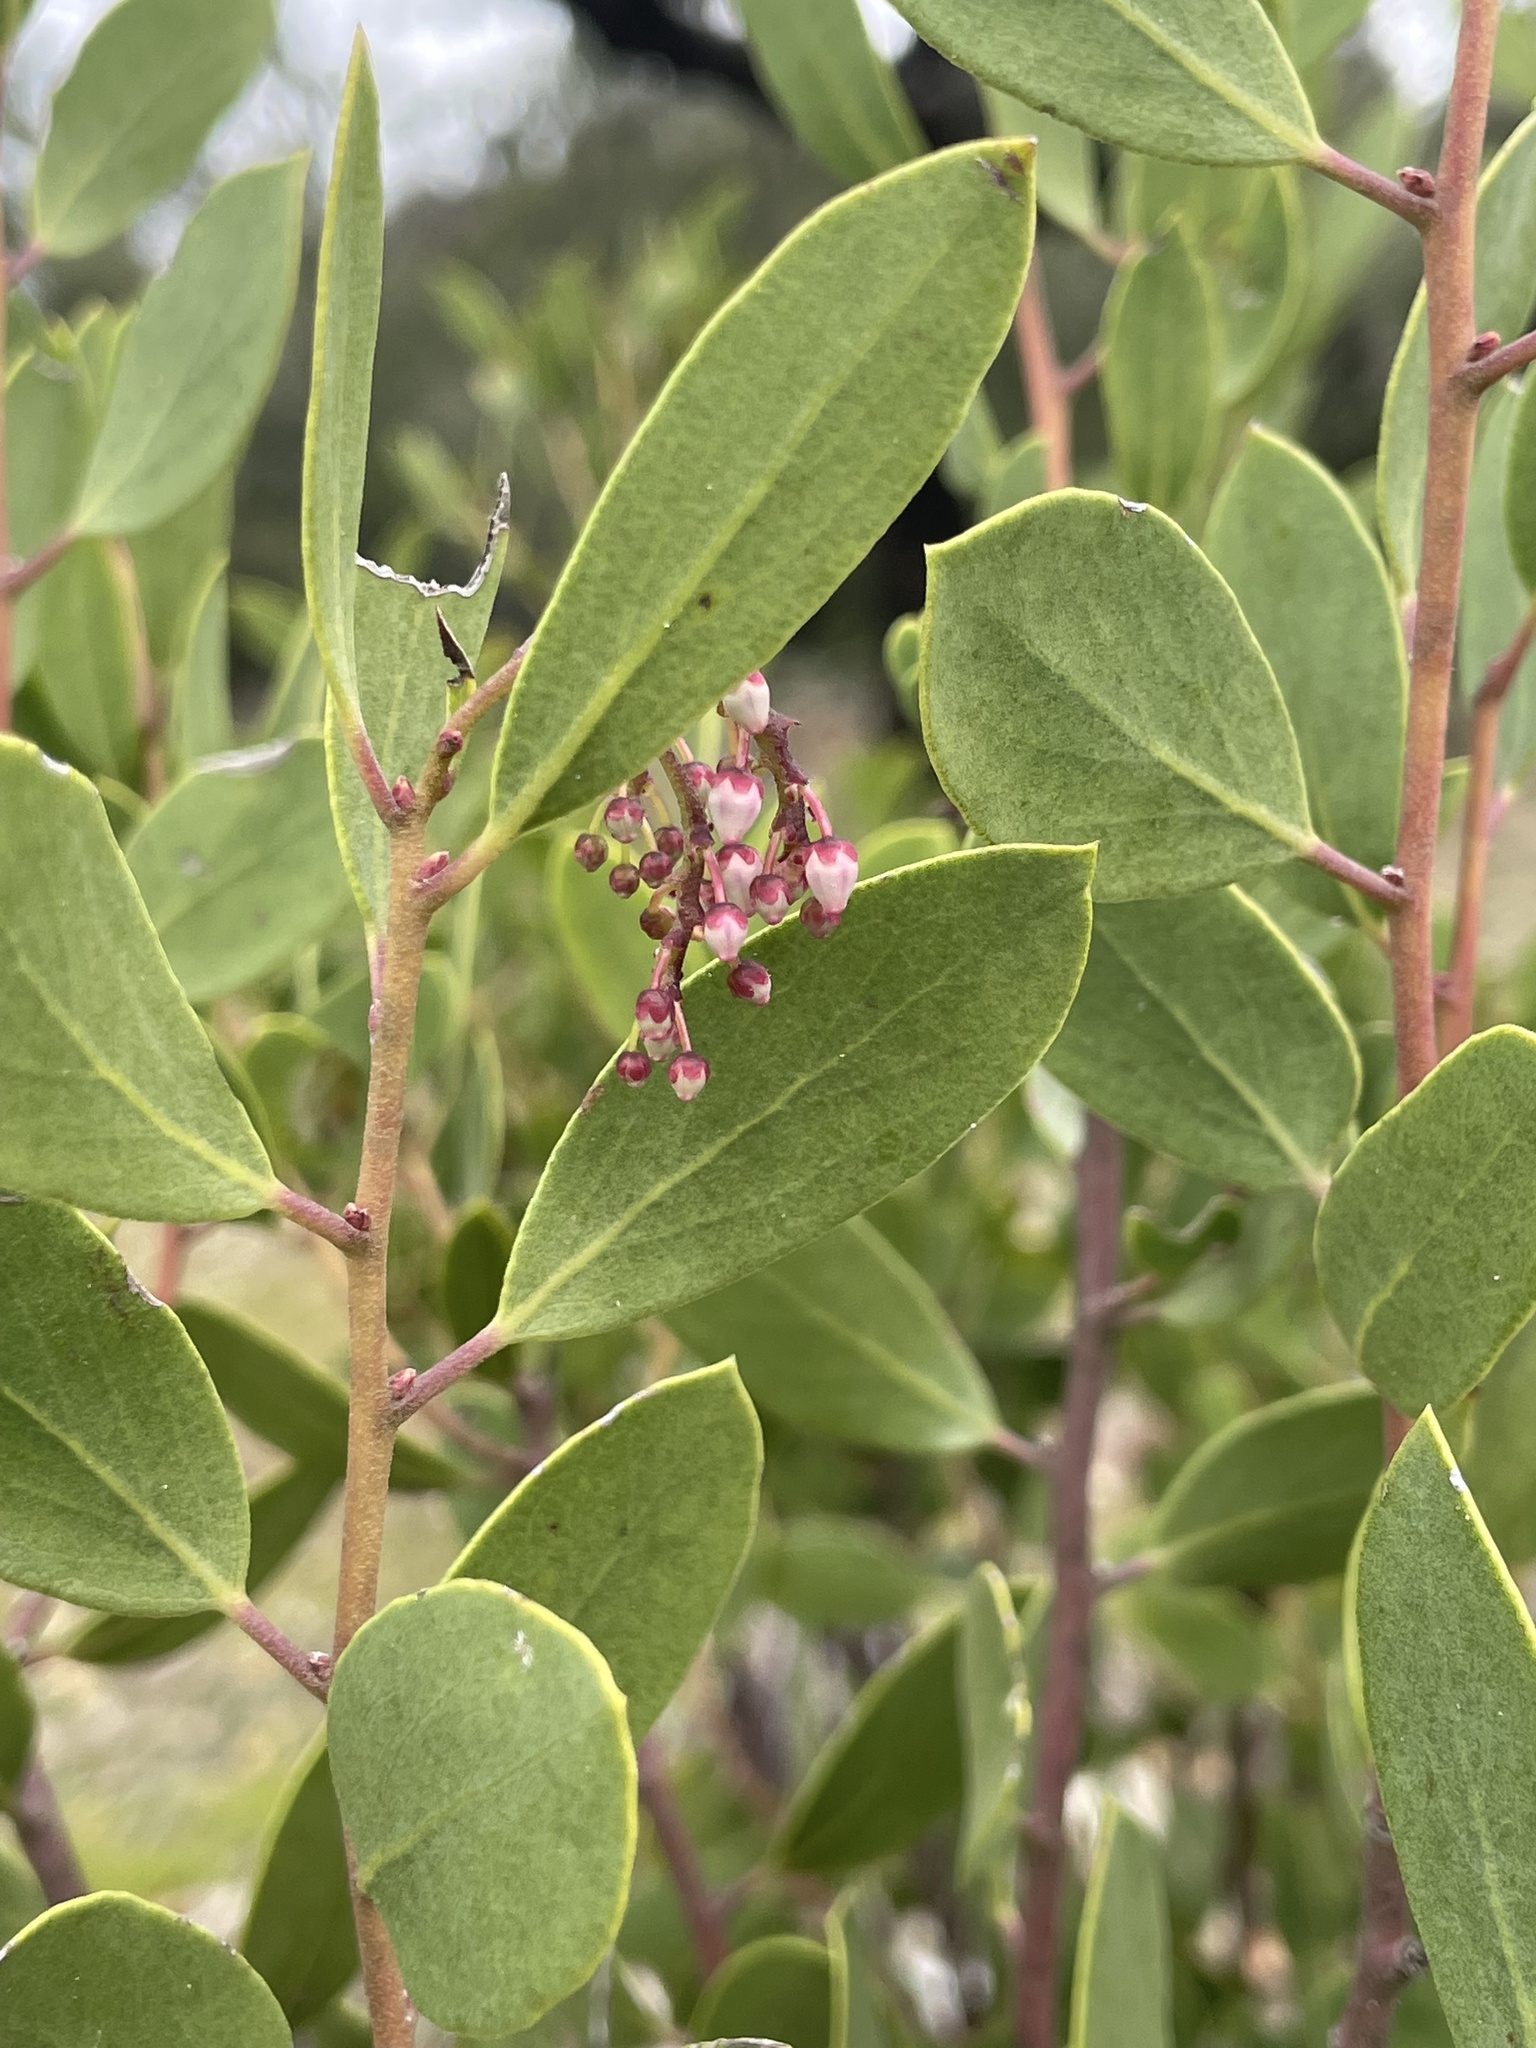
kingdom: Plantae
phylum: Tracheophyta
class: Magnoliopsida
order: Ericales
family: Ericaceae
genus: Arctostaphylos
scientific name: Arctostaphylos stanfordiana
